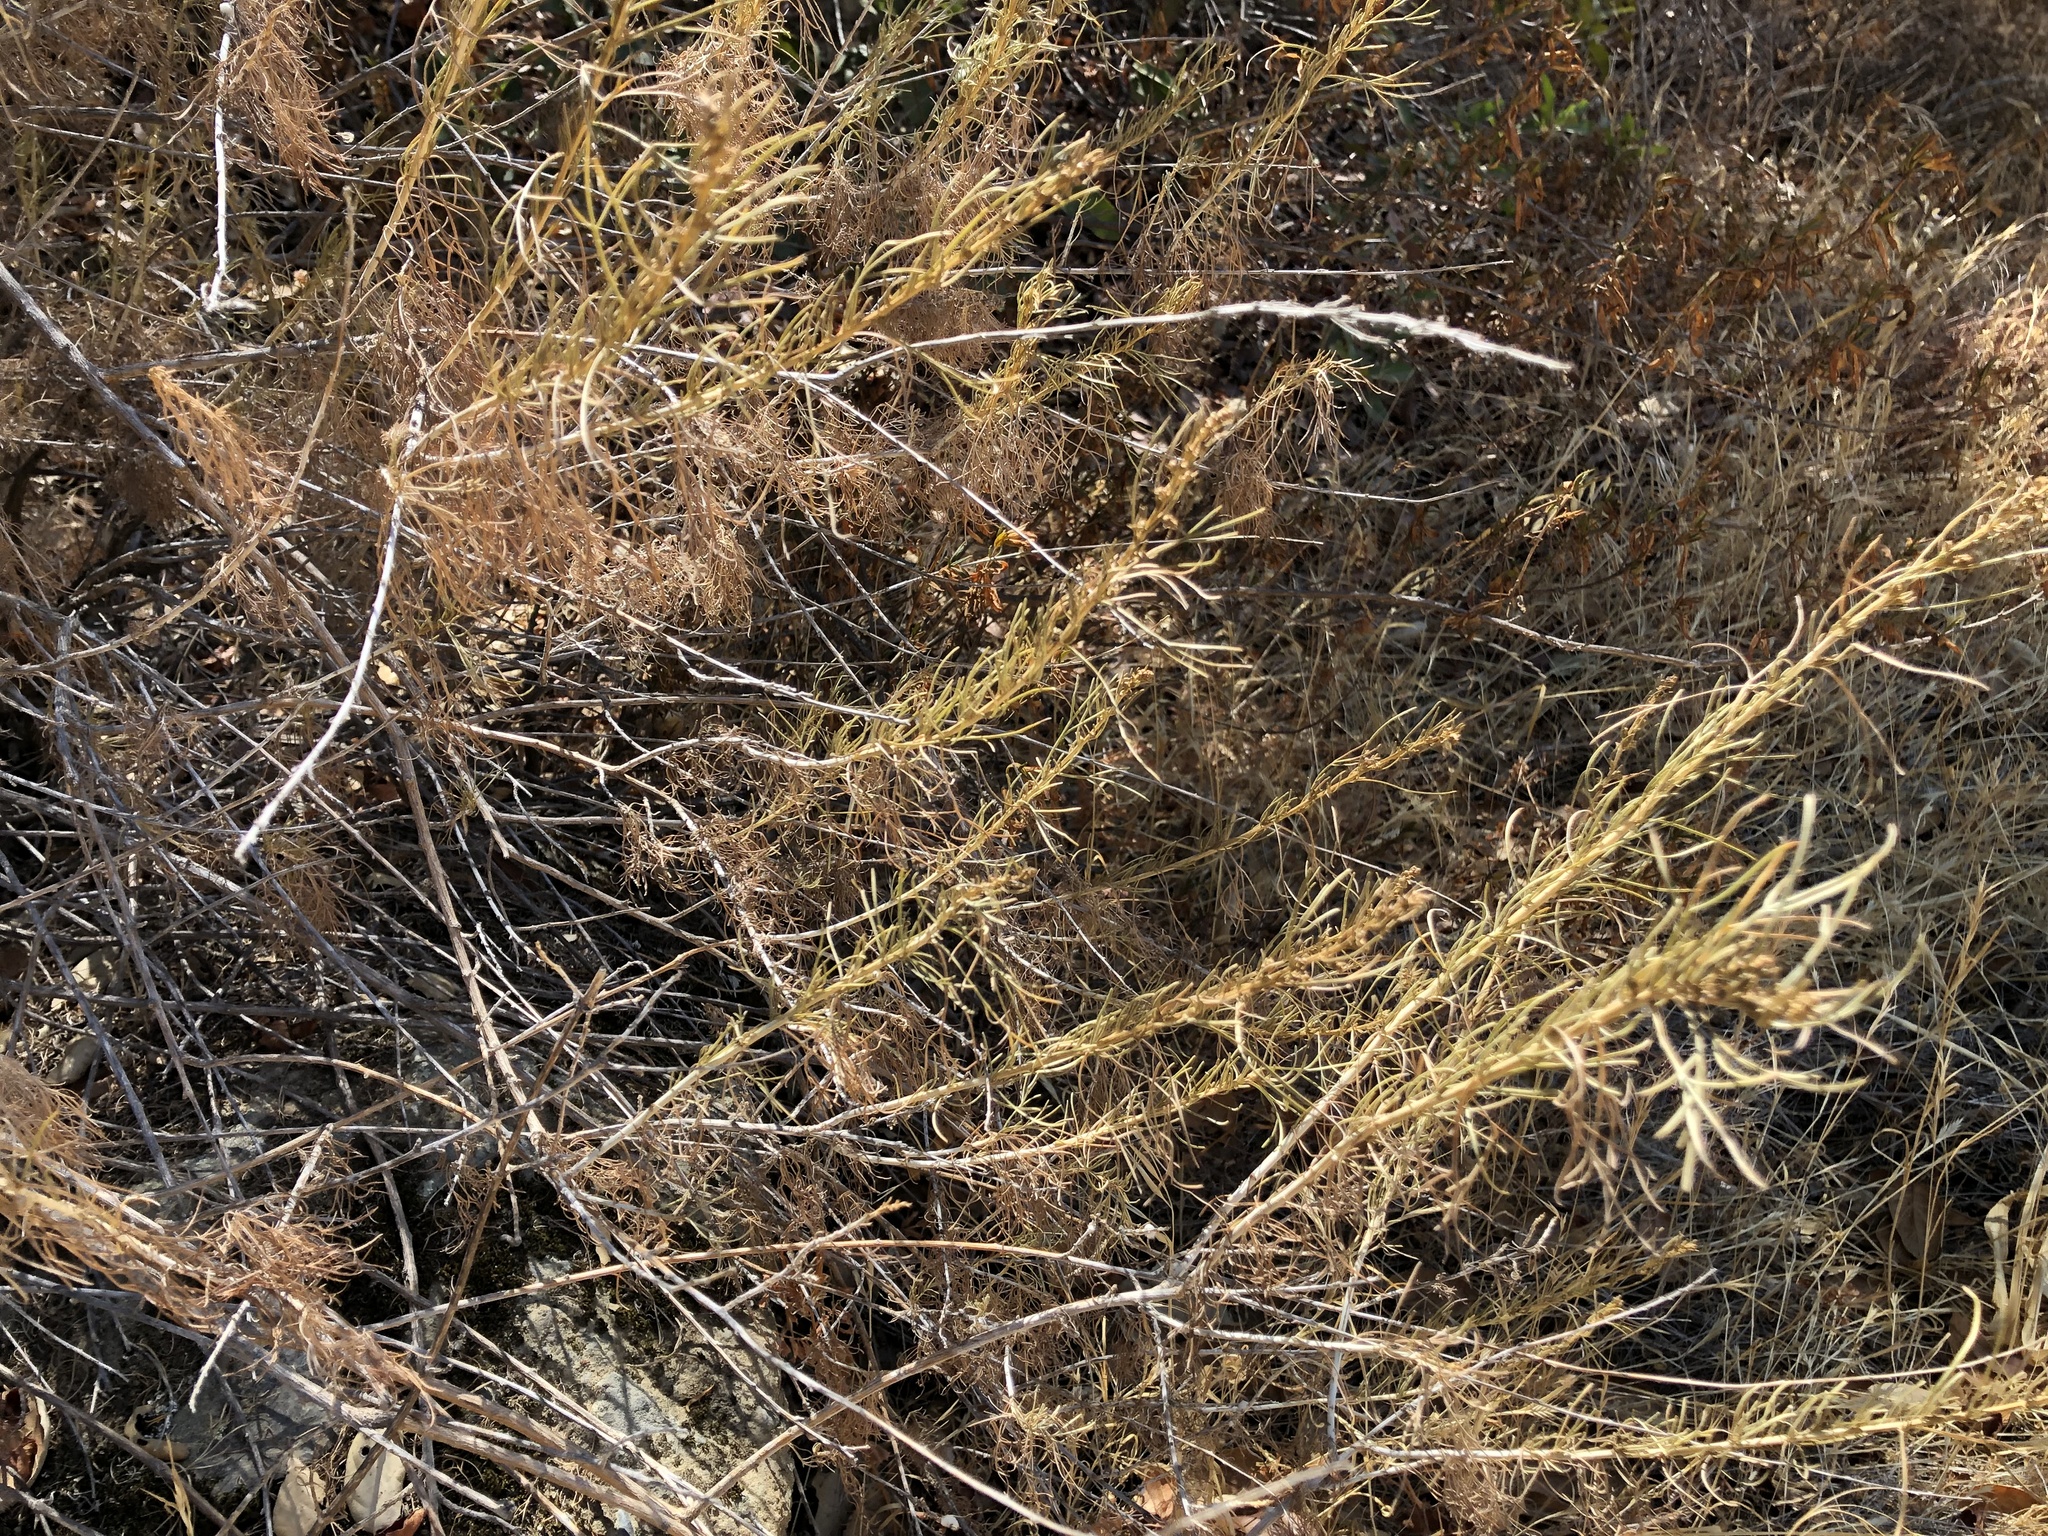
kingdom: Plantae
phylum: Tracheophyta
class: Magnoliopsida
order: Asterales
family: Asteraceae
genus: Artemisia
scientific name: Artemisia californica
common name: California sagebrush
